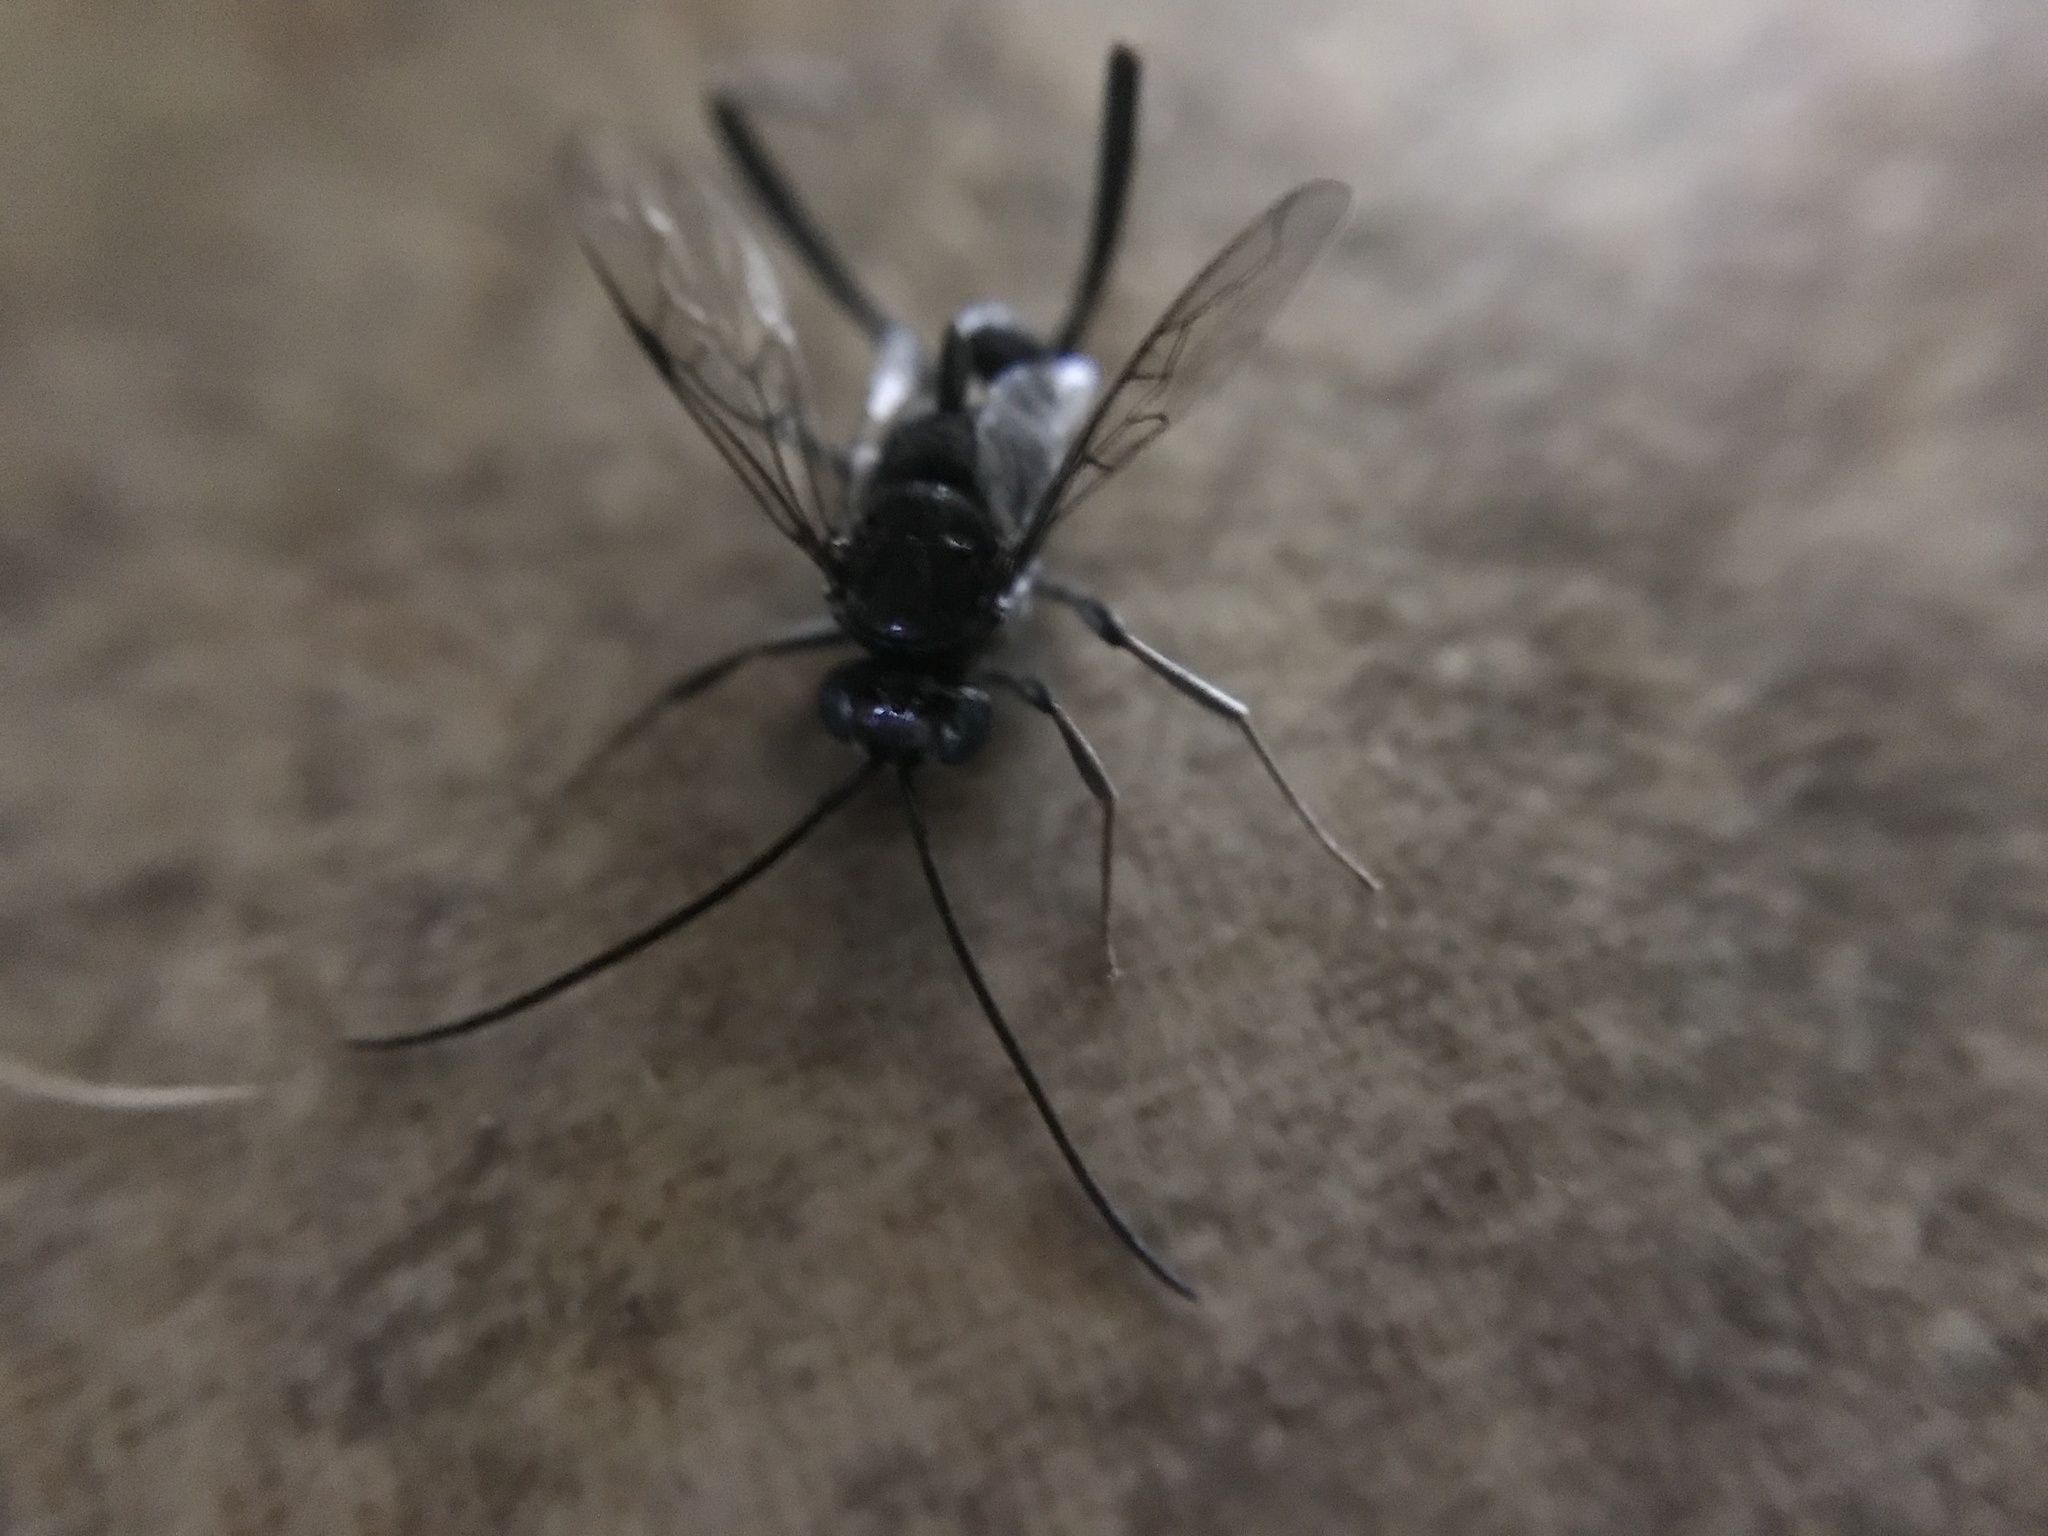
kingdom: Animalia
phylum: Arthropoda
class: Insecta
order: Hymenoptera
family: Evaniidae
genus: Evania
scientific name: Evania appendigaster
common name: Ensign wasp
